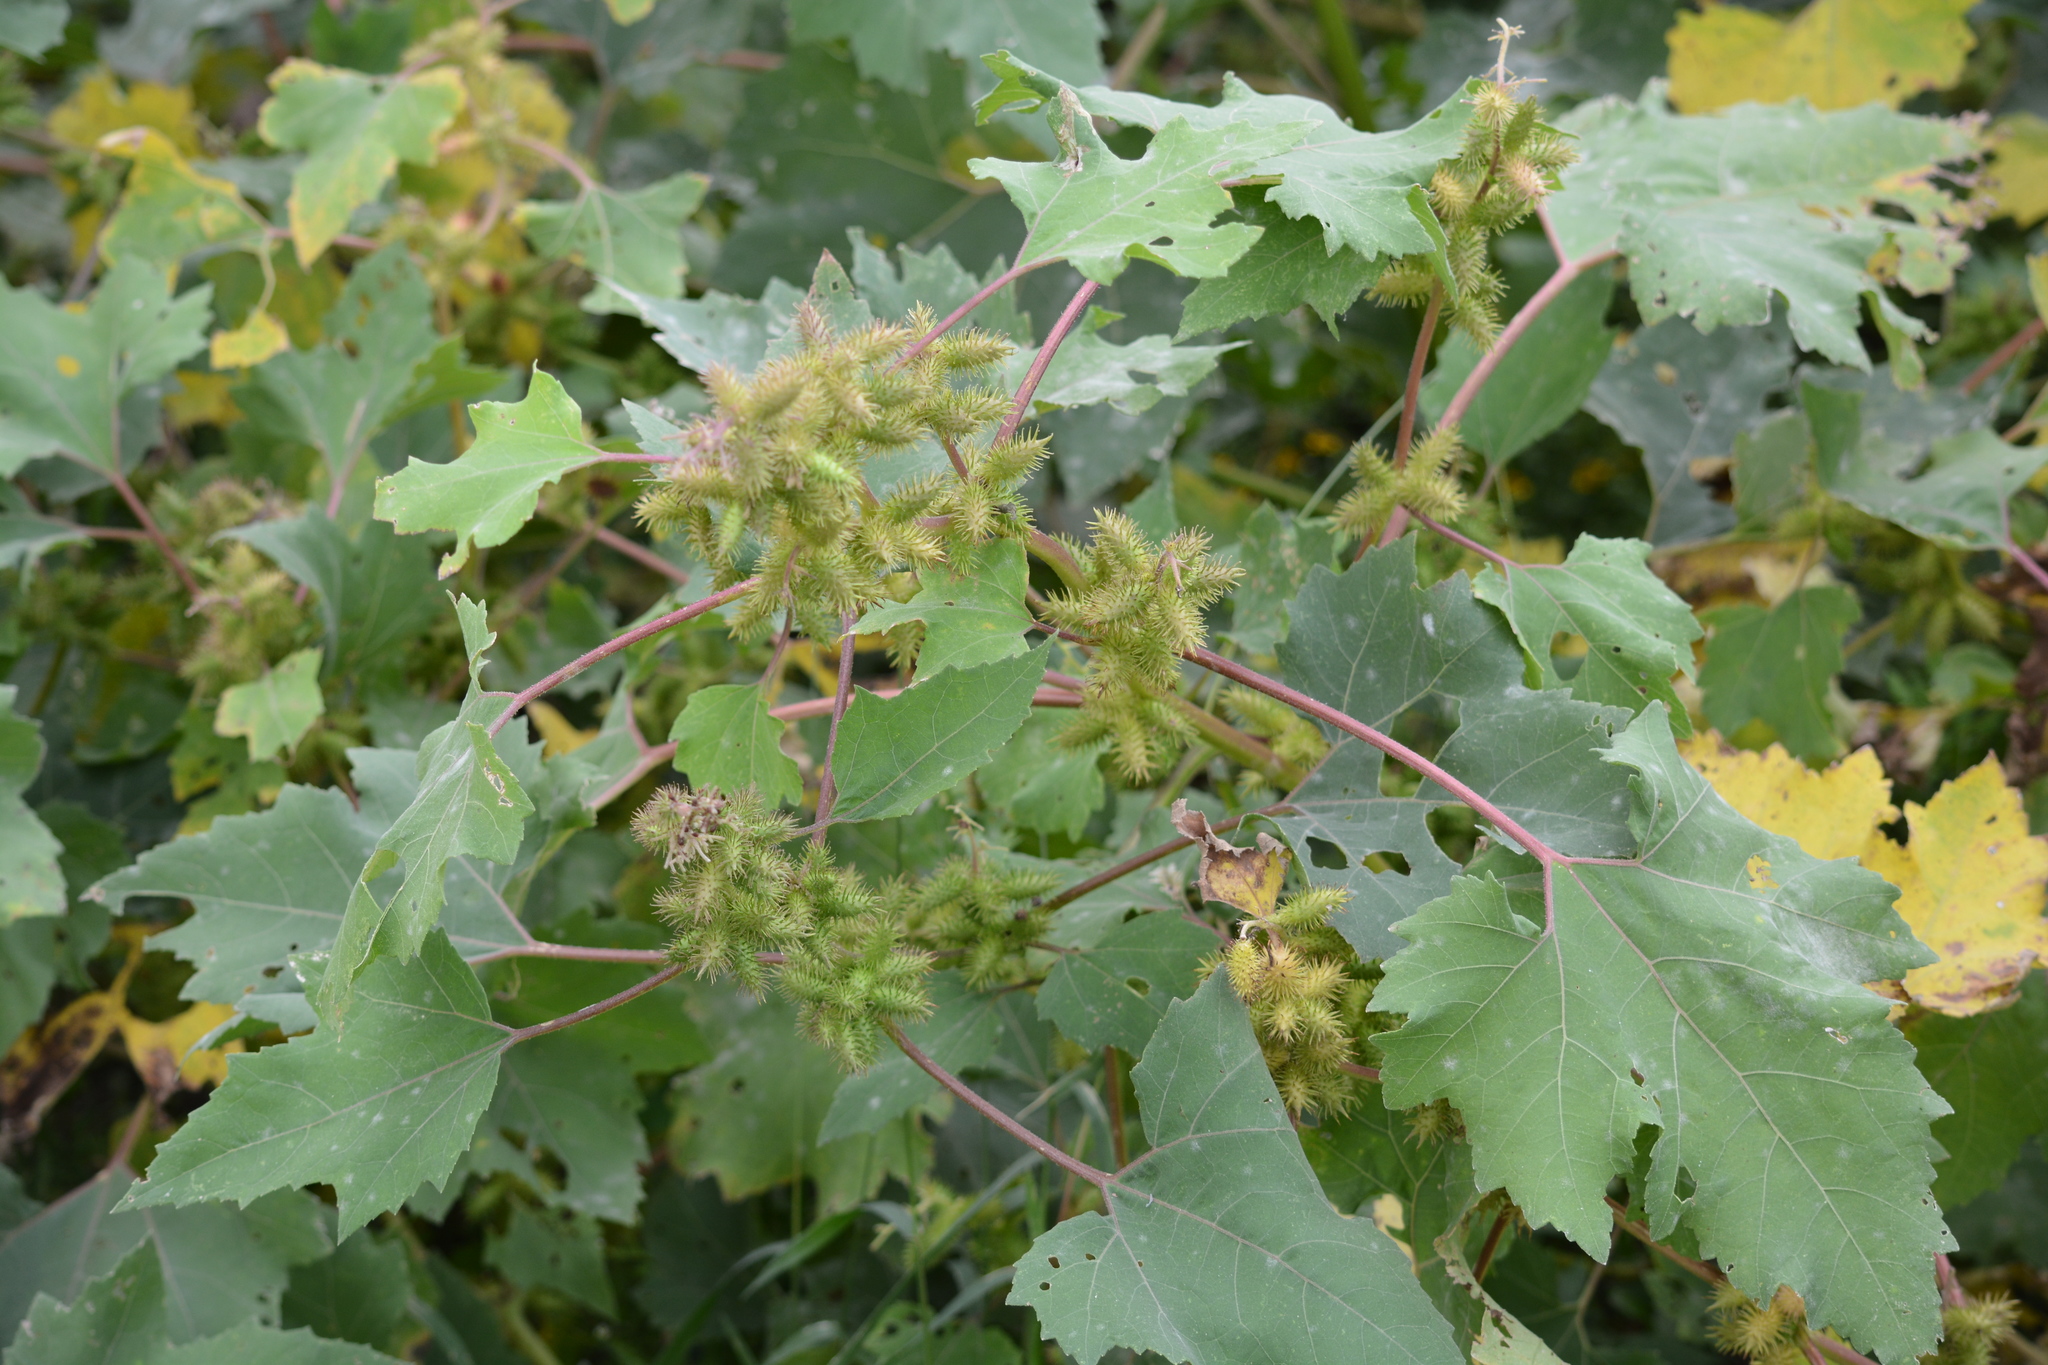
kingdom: Plantae
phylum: Tracheophyta
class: Magnoliopsida
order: Asterales
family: Asteraceae
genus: Xanthium
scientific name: Xanthium strumarium
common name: Rough cocklebur
